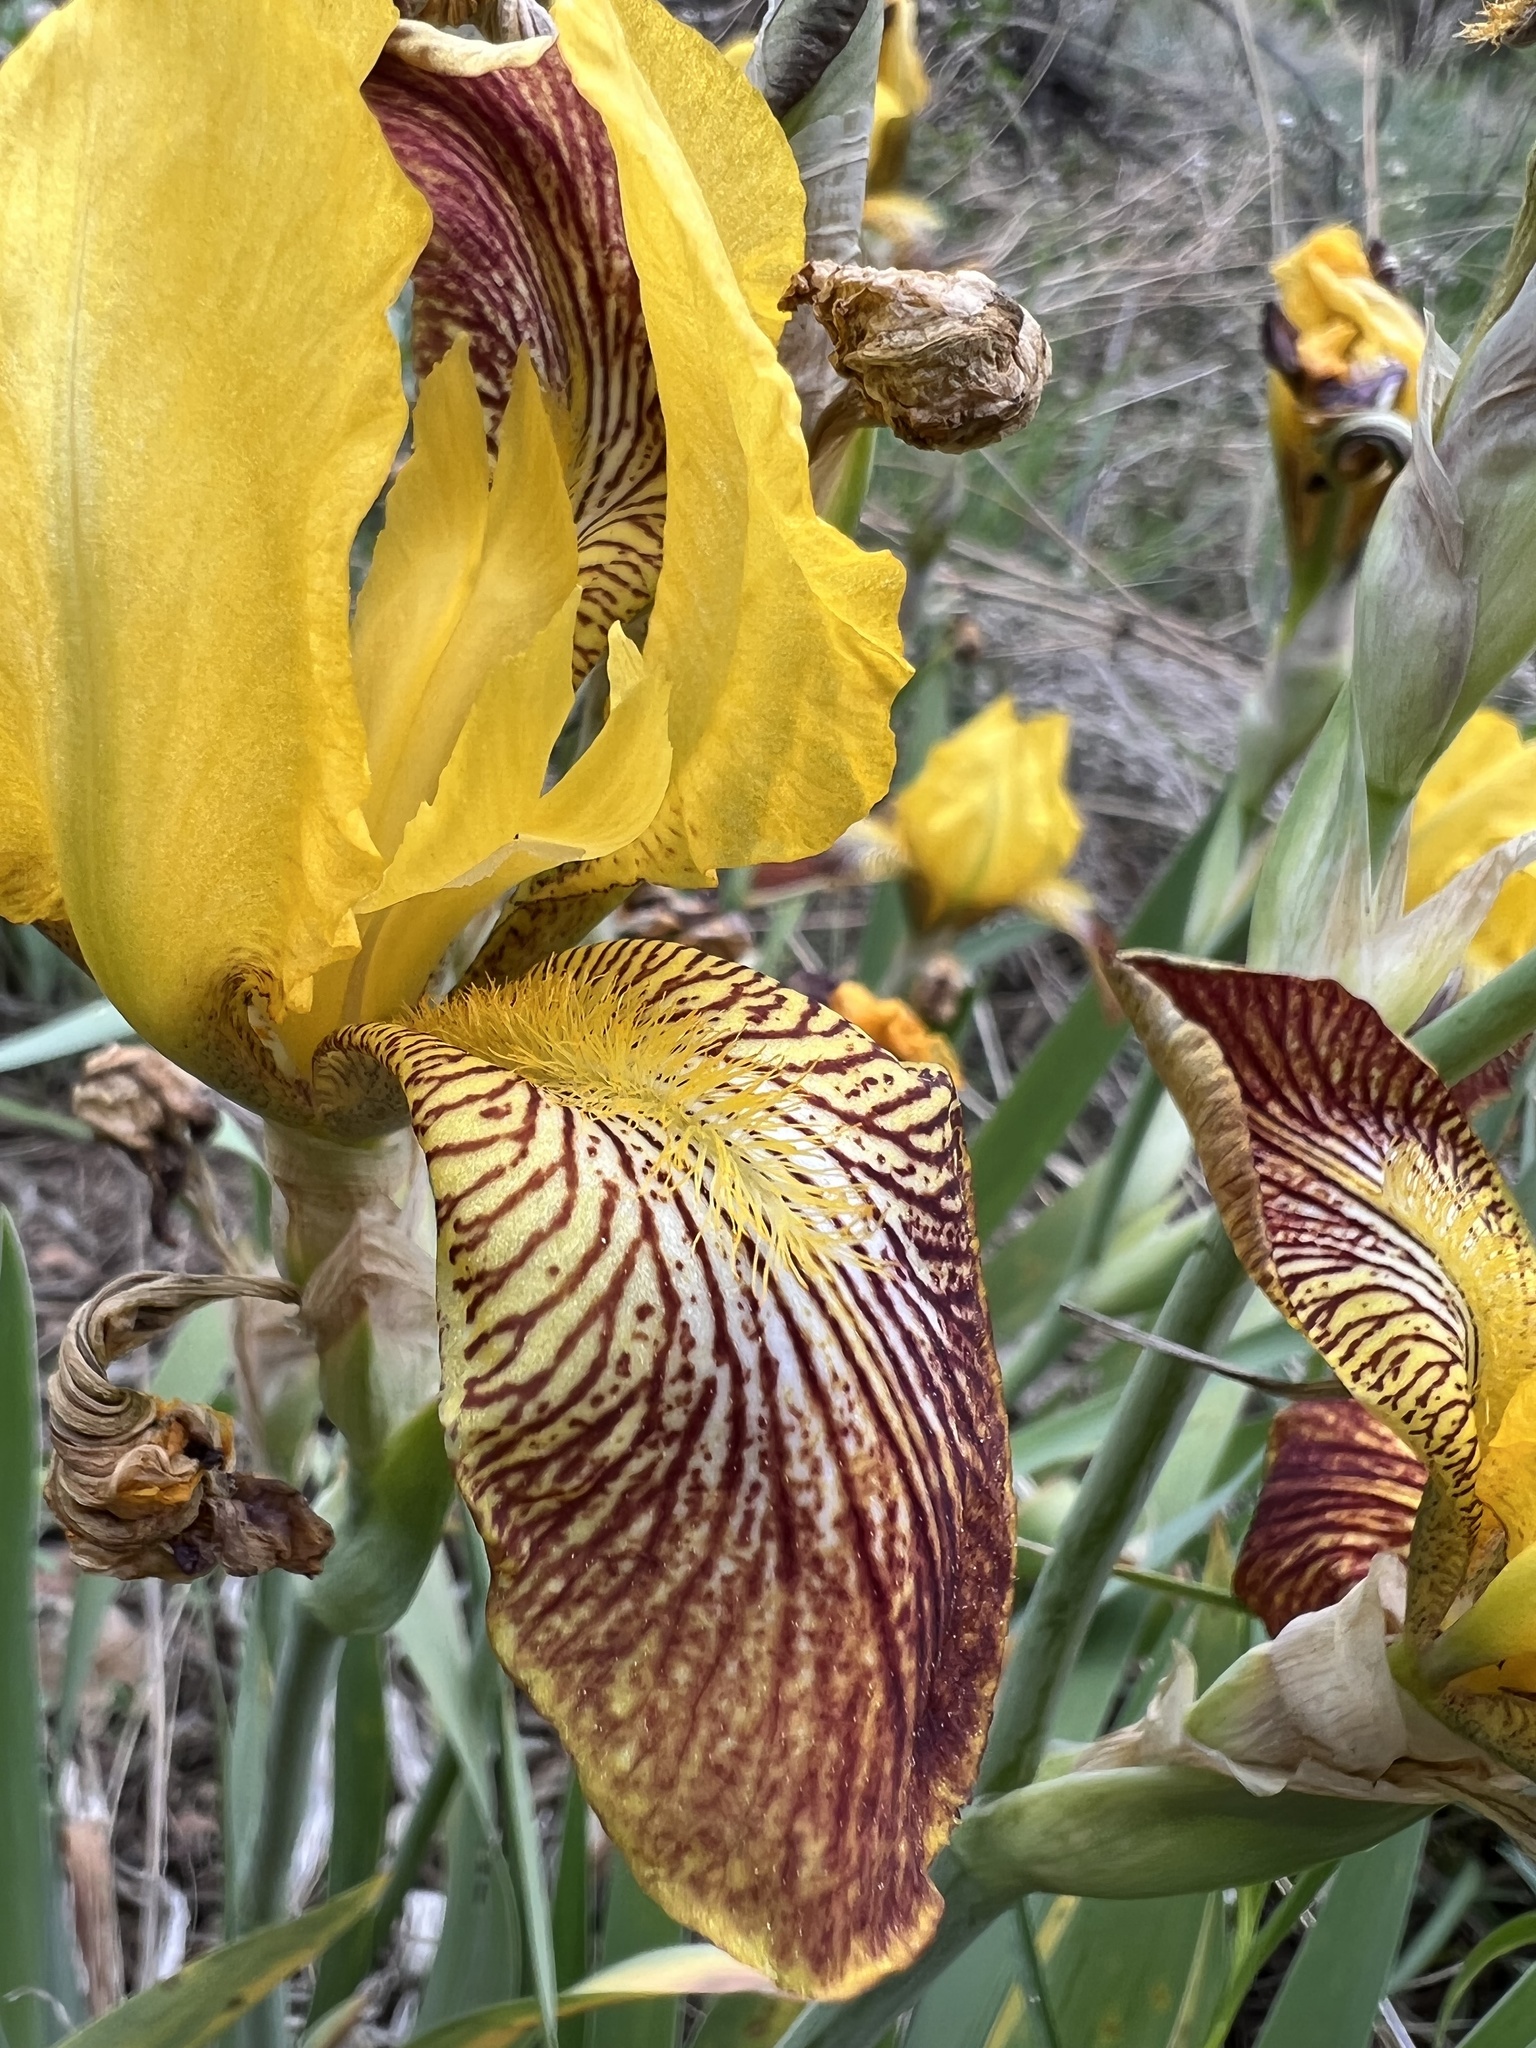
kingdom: Plantae
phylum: Tracheophyta
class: Liliopsida
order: Asparagales
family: Iridaceae
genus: Iris
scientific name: Iris hybrida
